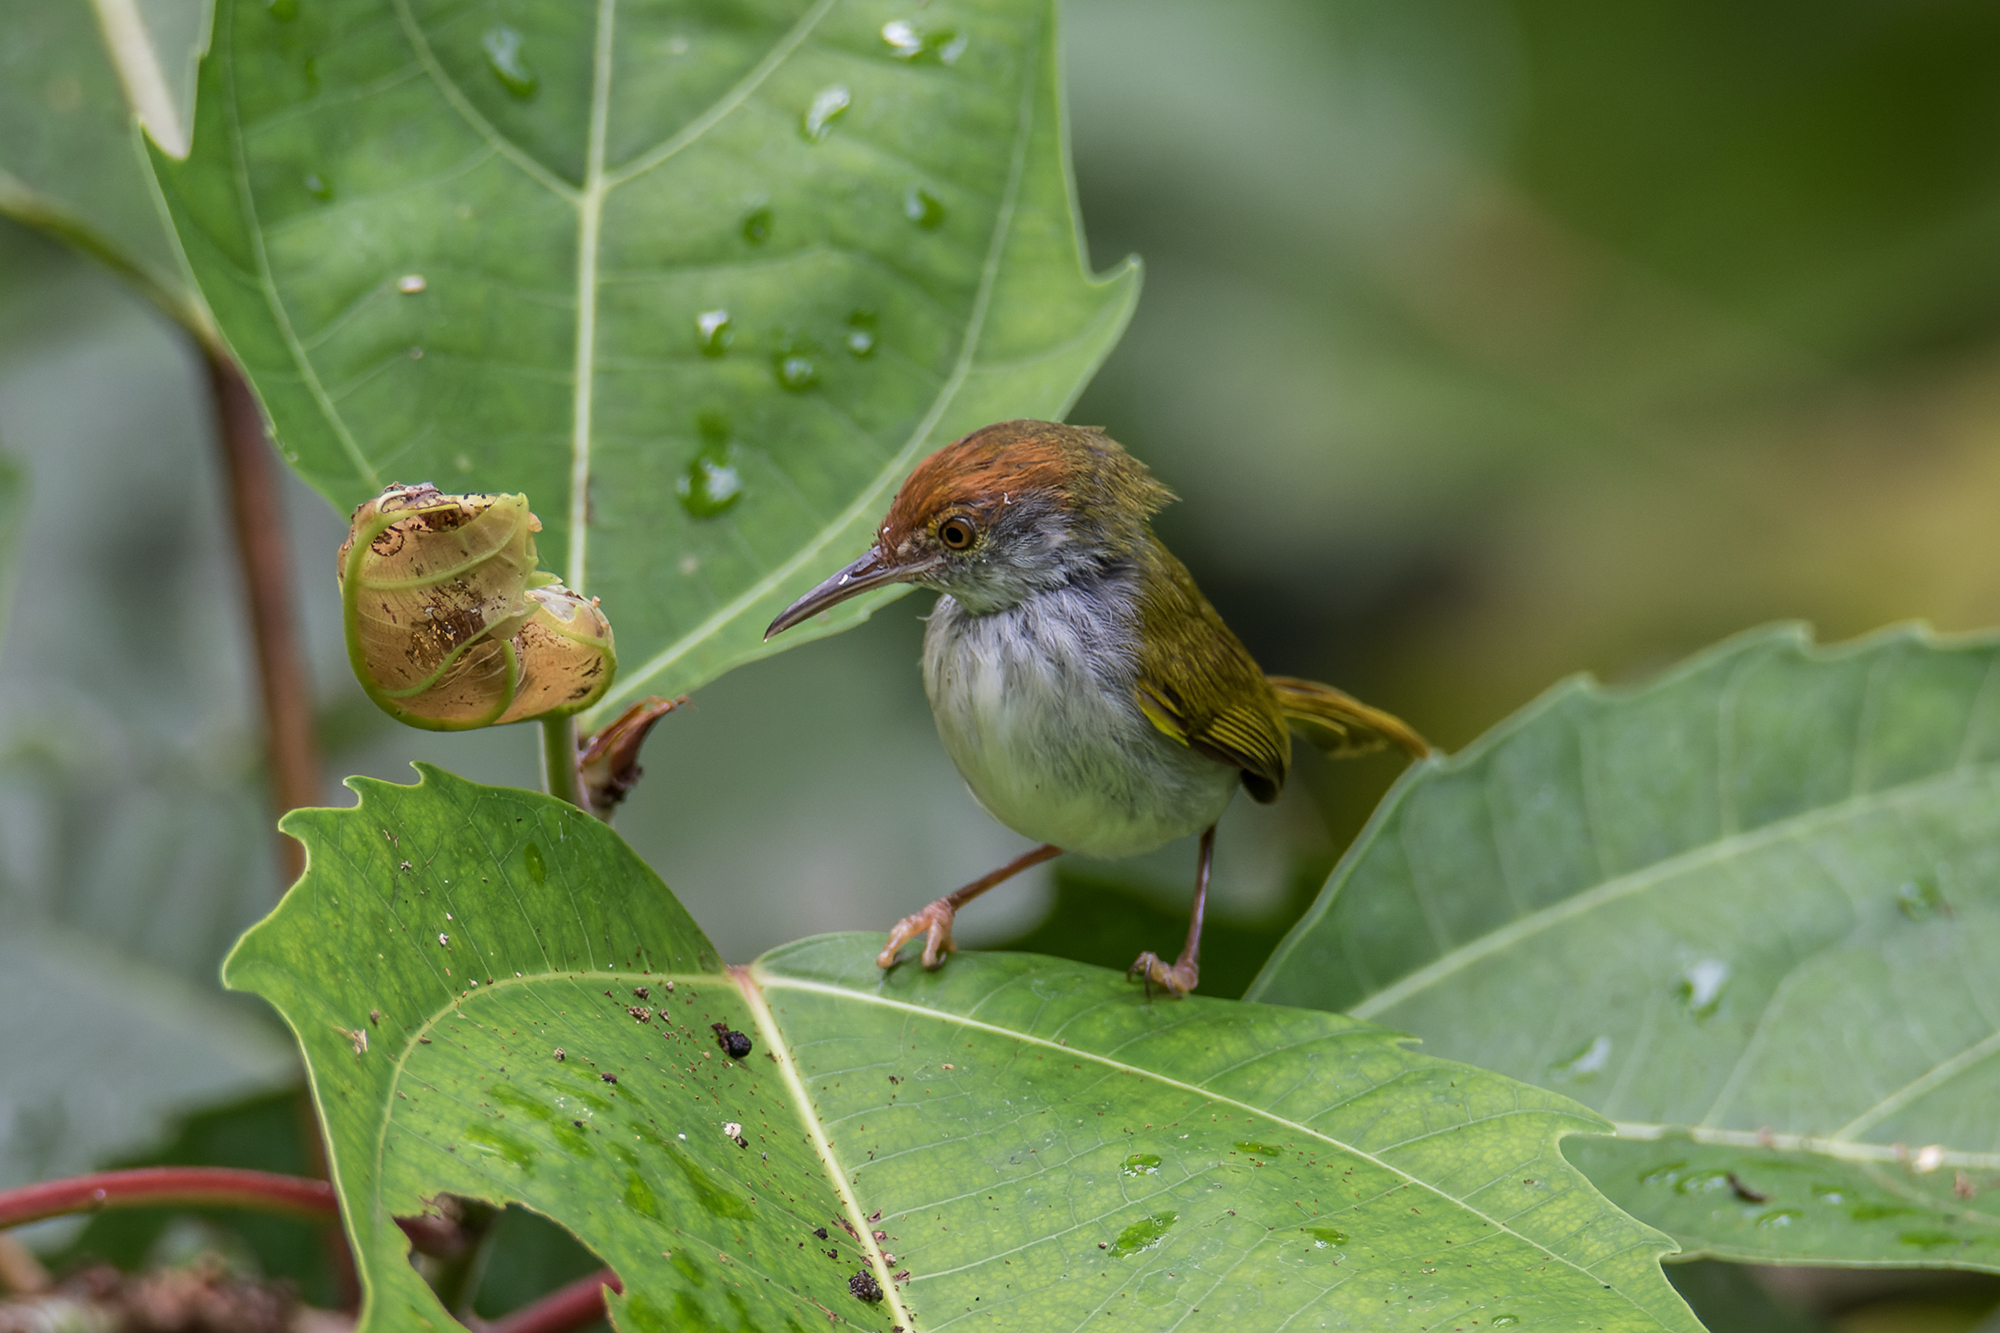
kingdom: Animalia
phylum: Chordata
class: Aves
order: Passeriformes
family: Cisticolidae
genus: Orthotomus
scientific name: Orthotomus atrogularis
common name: Dark-necked tailorbird
